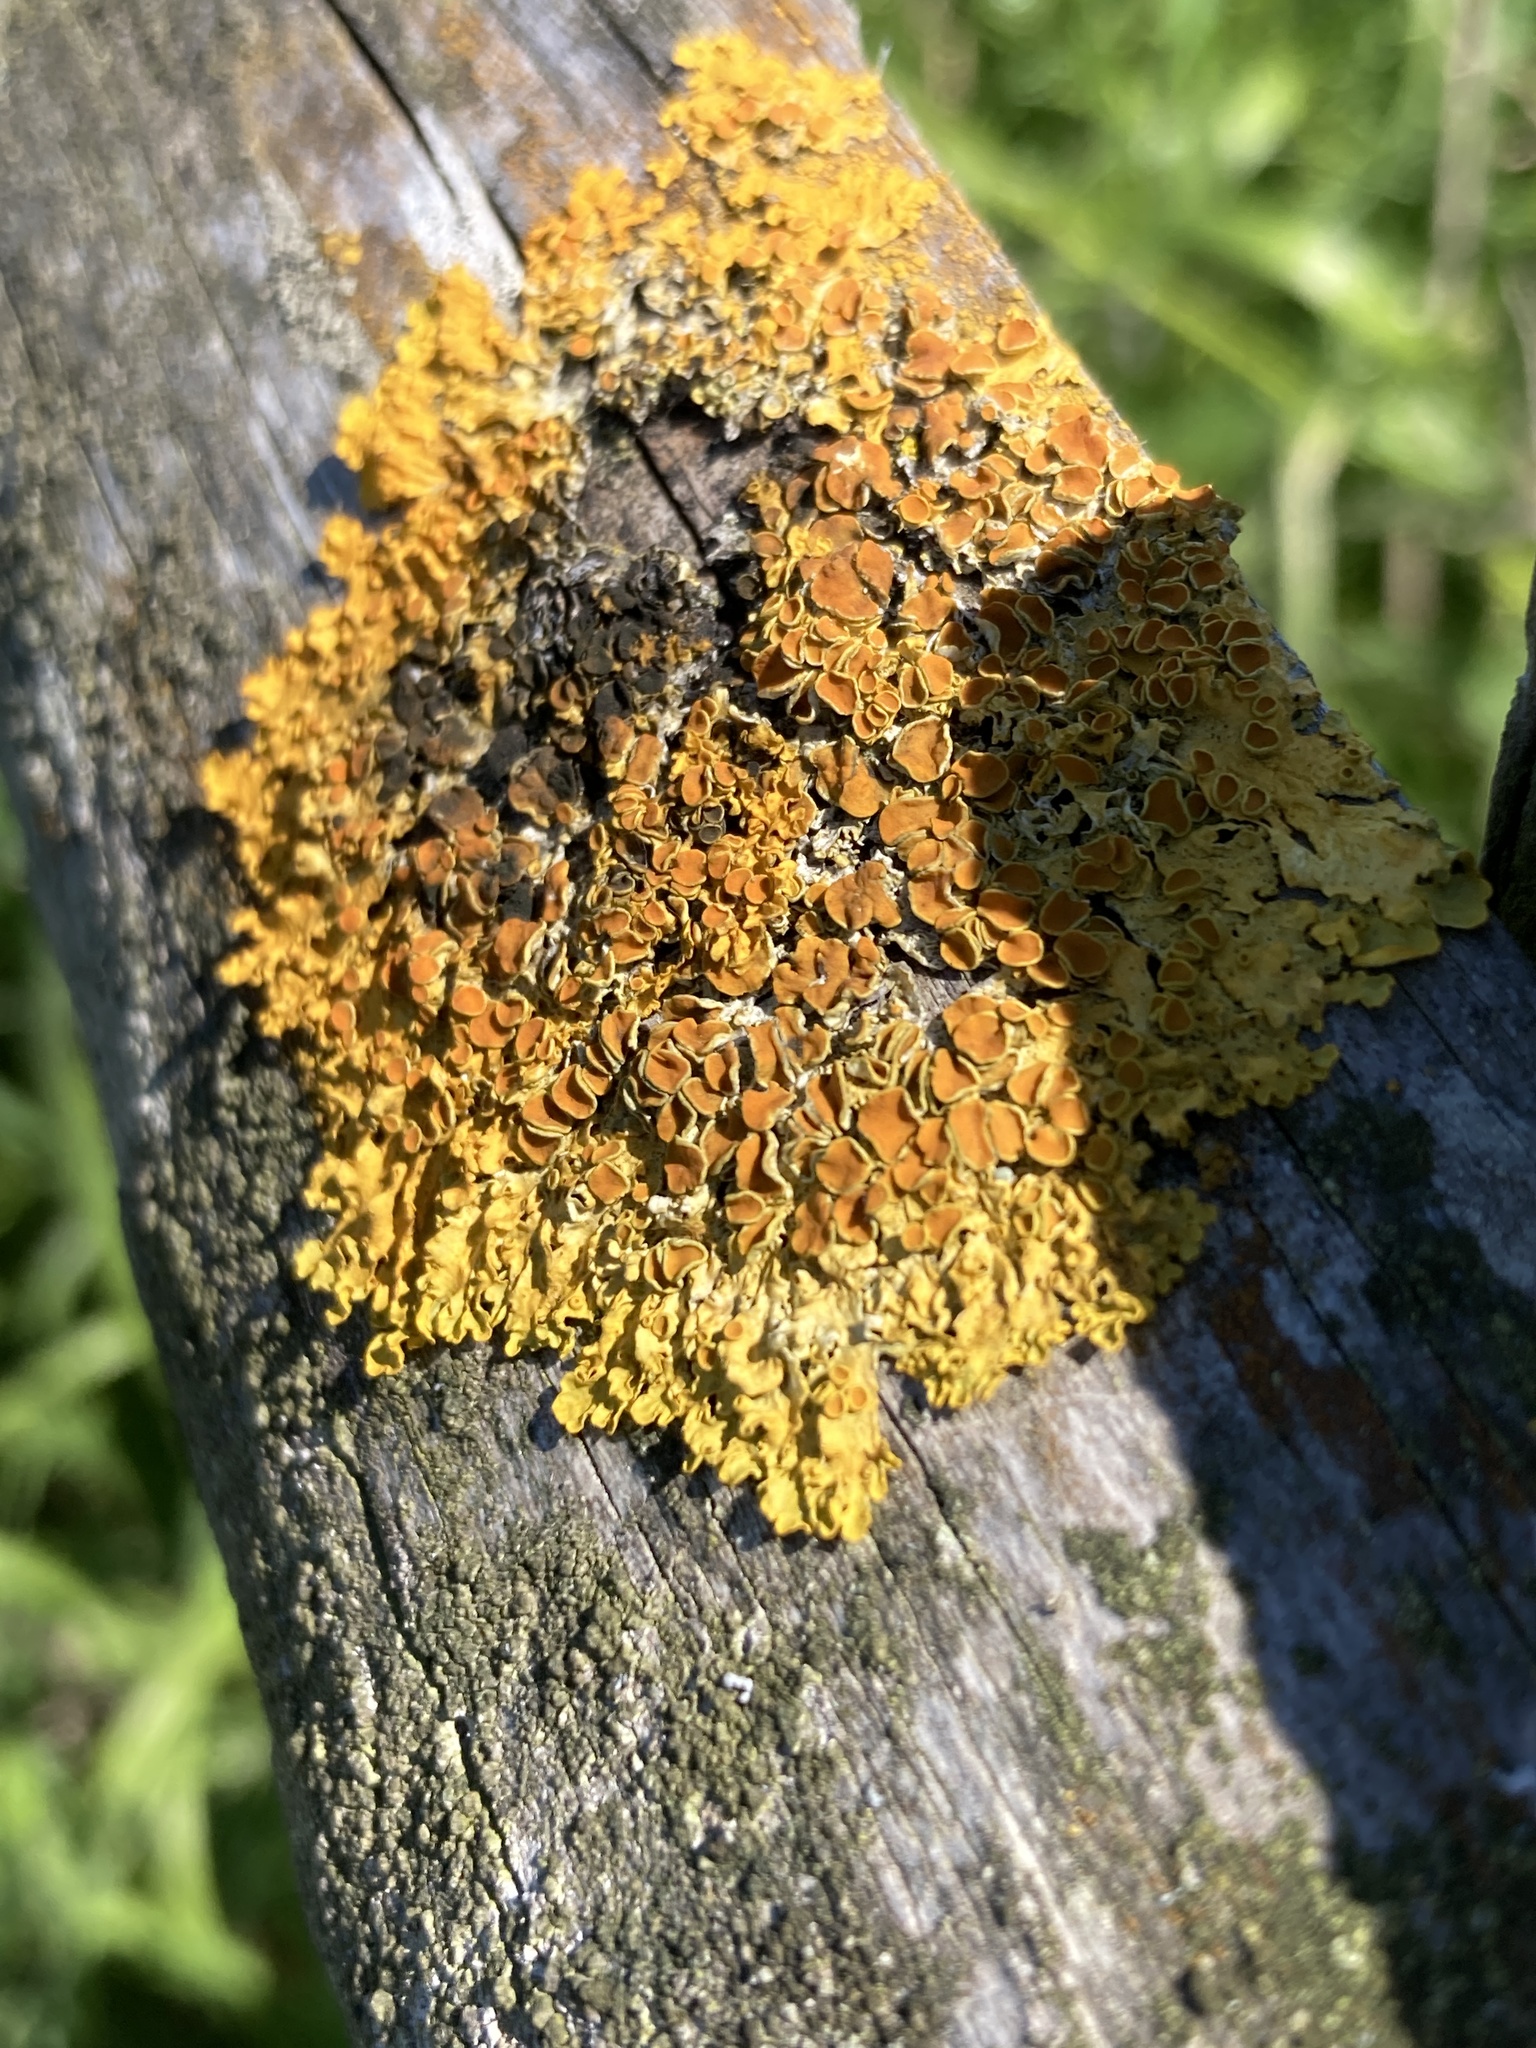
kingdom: Fungi
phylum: Ascomycota
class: Lecanoromycetes
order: Teloschistales
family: Teloschistaceae
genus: Xanthoria
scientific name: Xanthoria parietina
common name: Common orange lichen
